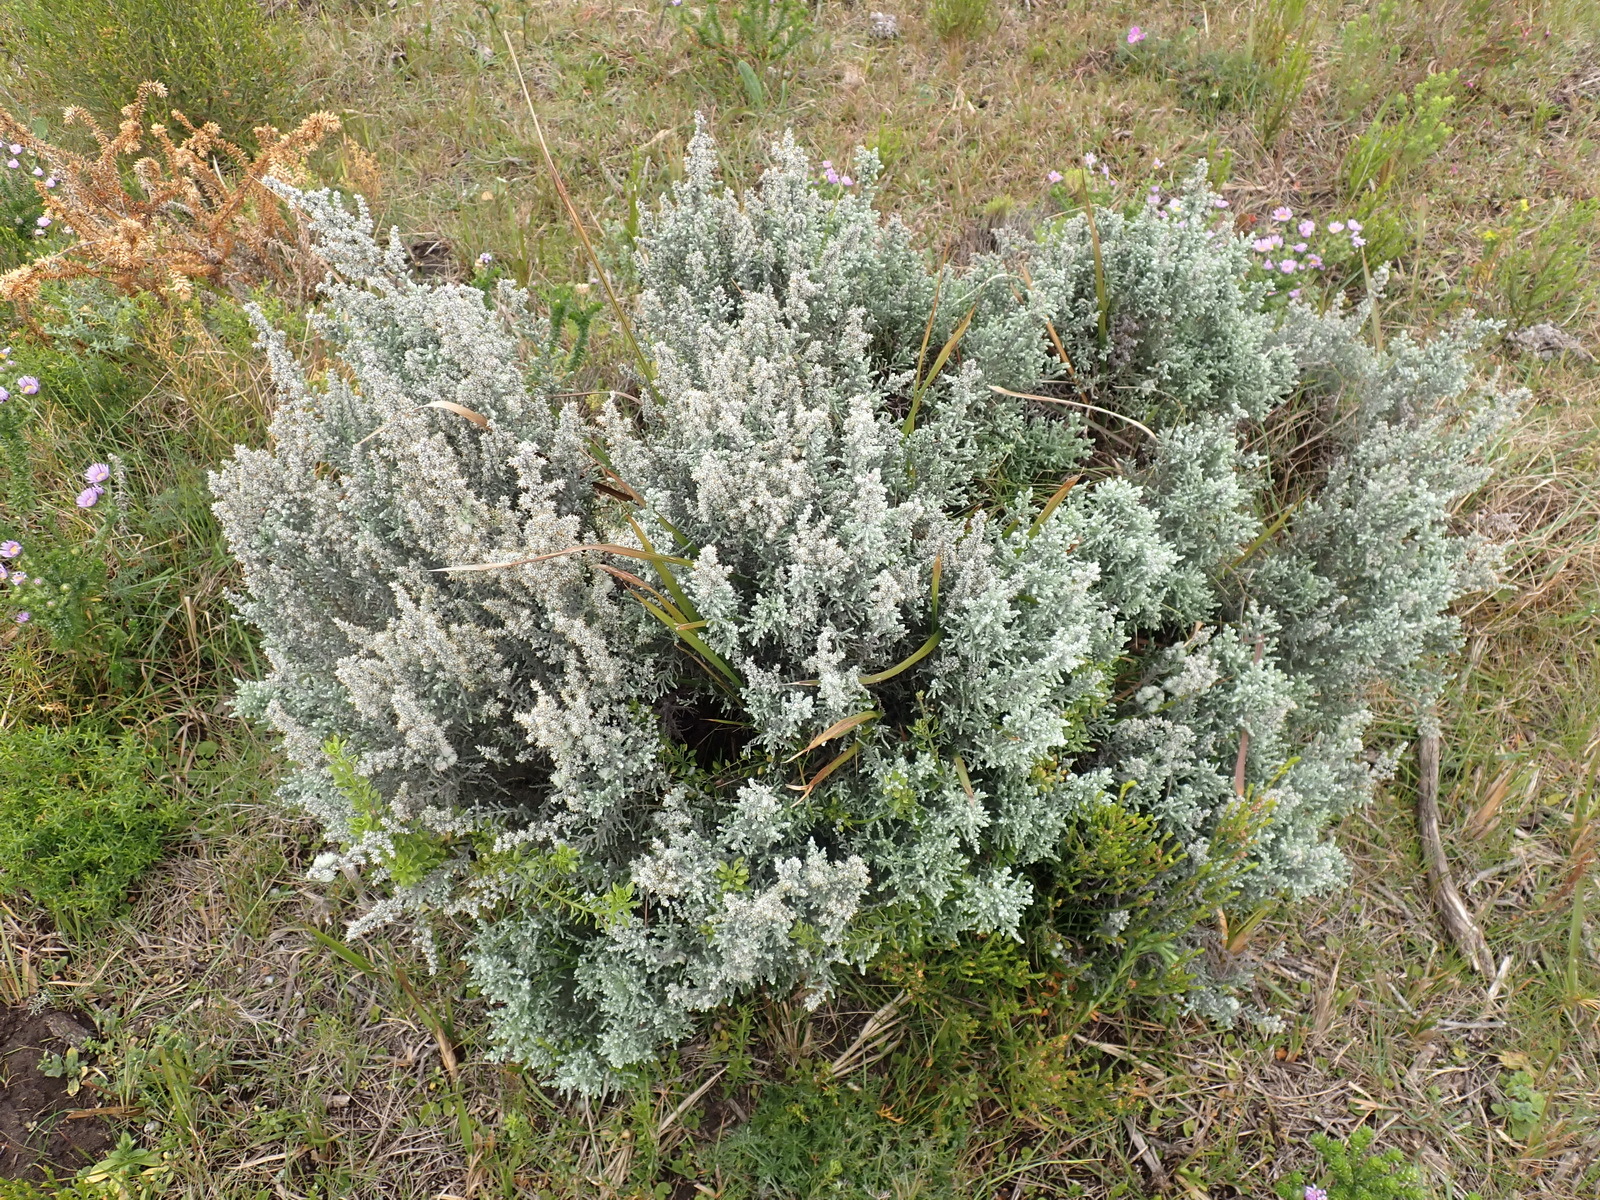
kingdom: Plantae
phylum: Tracheophyta
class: Magnoliopsida
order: Asterales
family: Asteraceae
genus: Seriphium
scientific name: Seriphium cinereum
